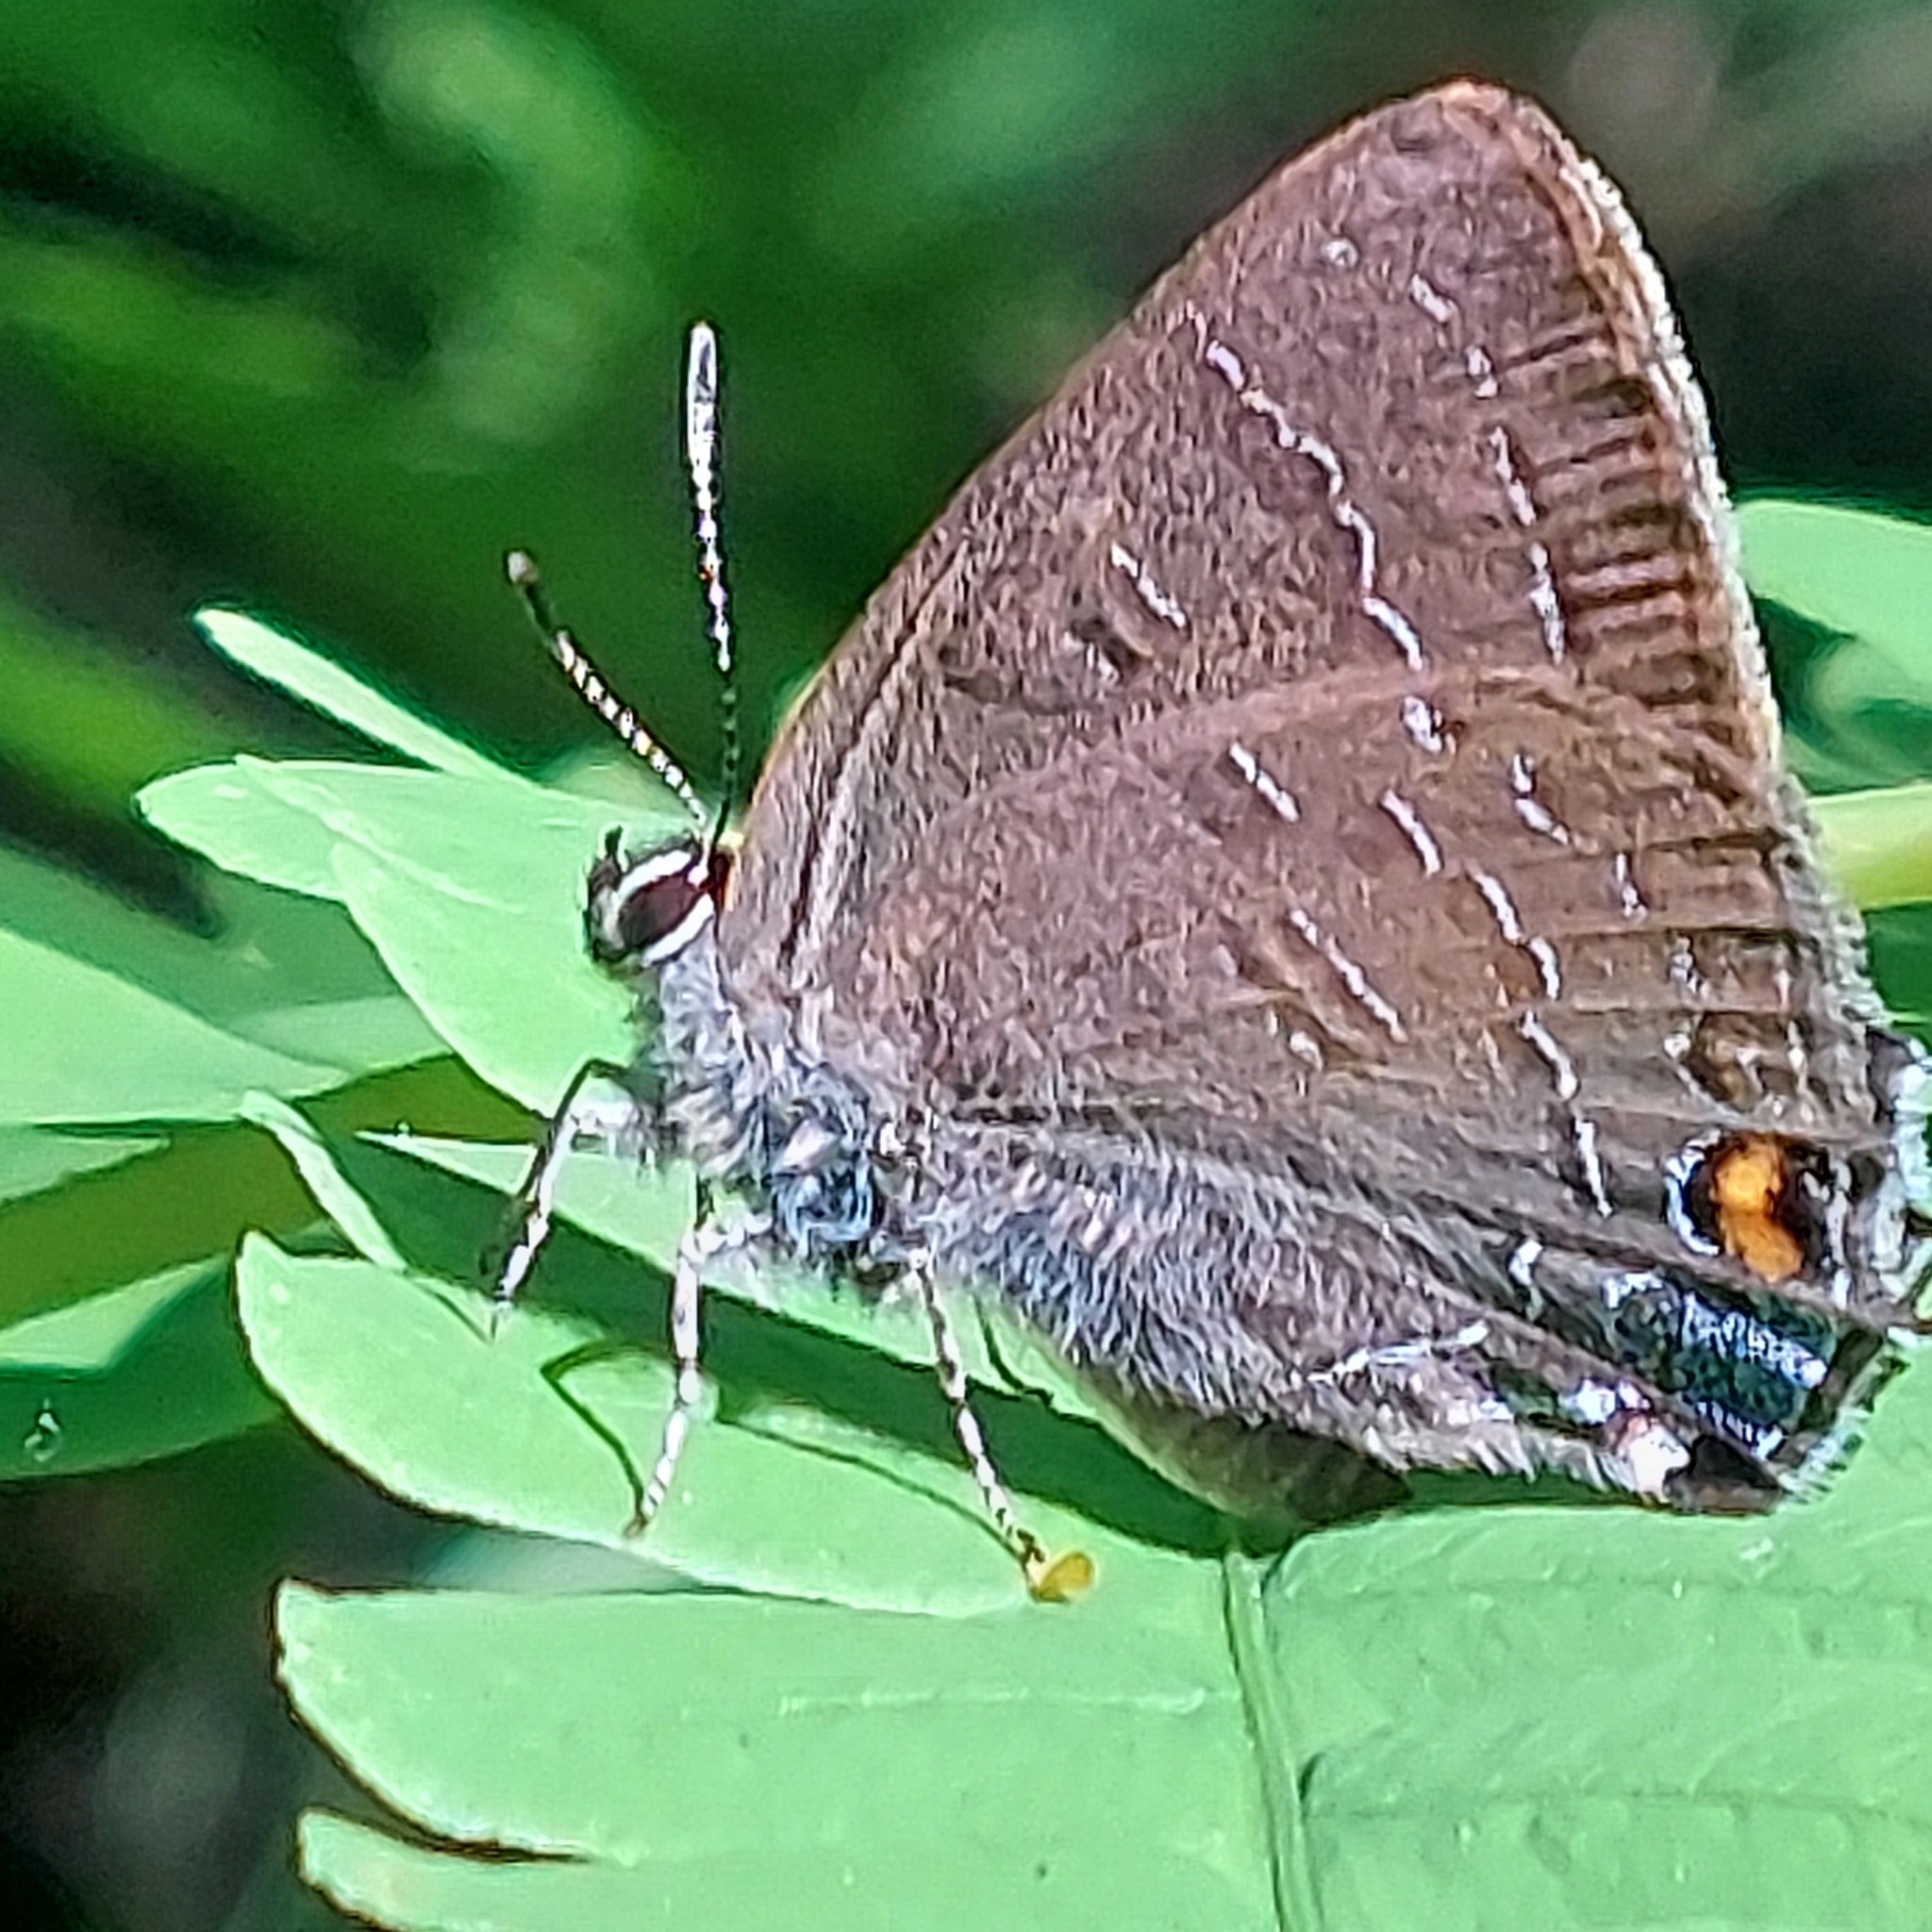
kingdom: Animalia
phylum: Arthropoda
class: Insecta
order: Lepidoptera
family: Lycaenidae
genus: Satyrium
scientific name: Satyrium calanus
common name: Banded hairstreak
